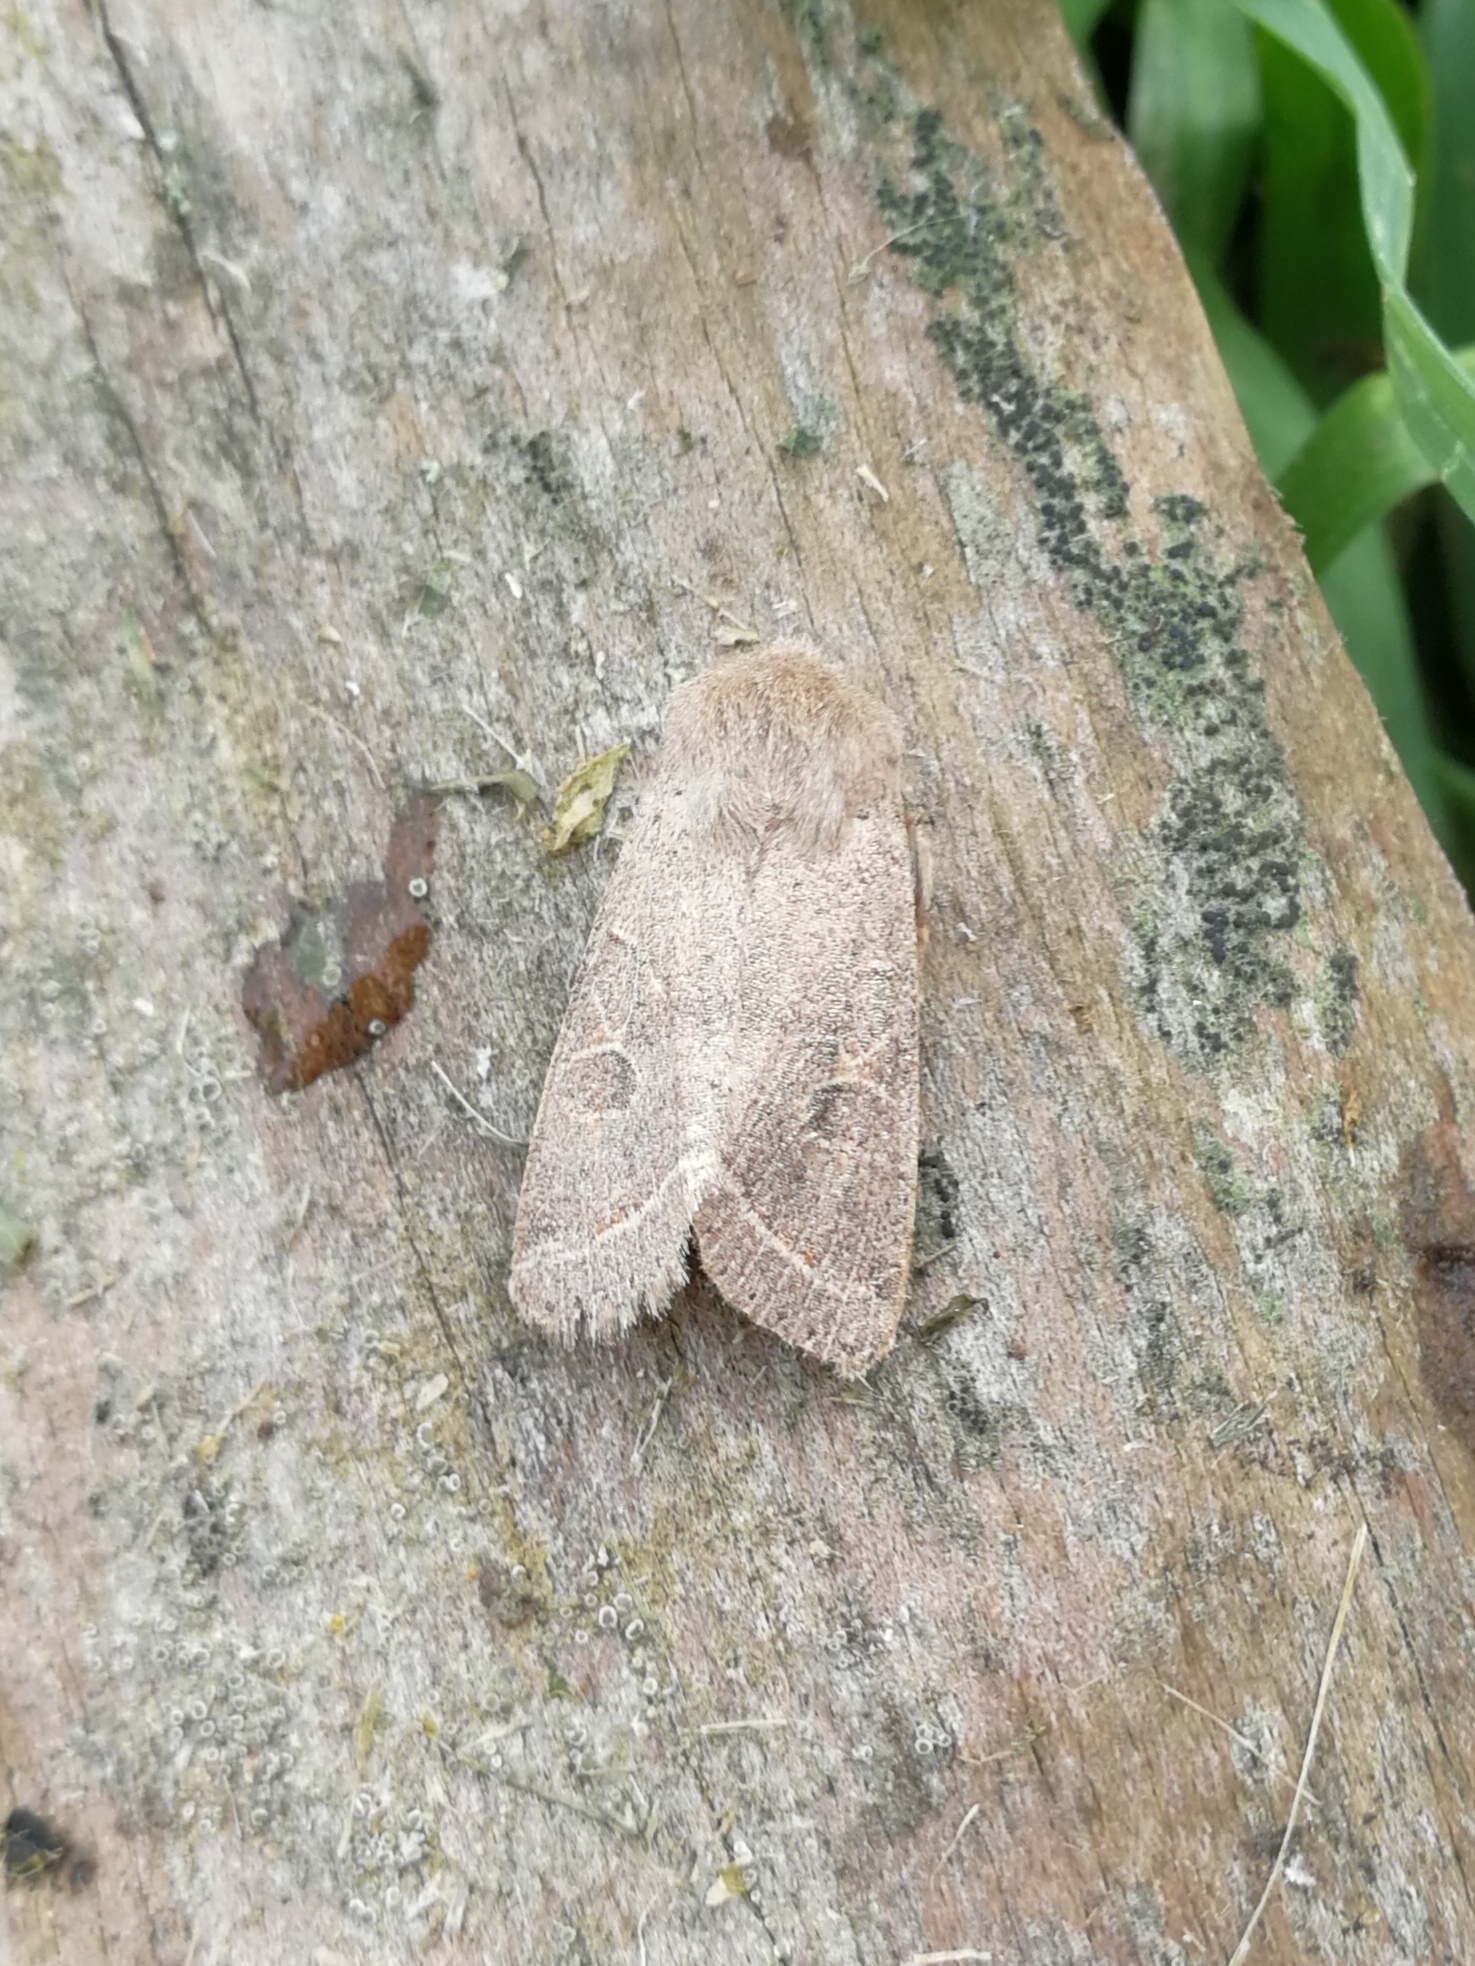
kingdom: Animalia
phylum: Arthropoda
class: Insecta
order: Lepidoptera
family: Noctuidae
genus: Orthosia
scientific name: Orthosia cerasi
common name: Common quaker
